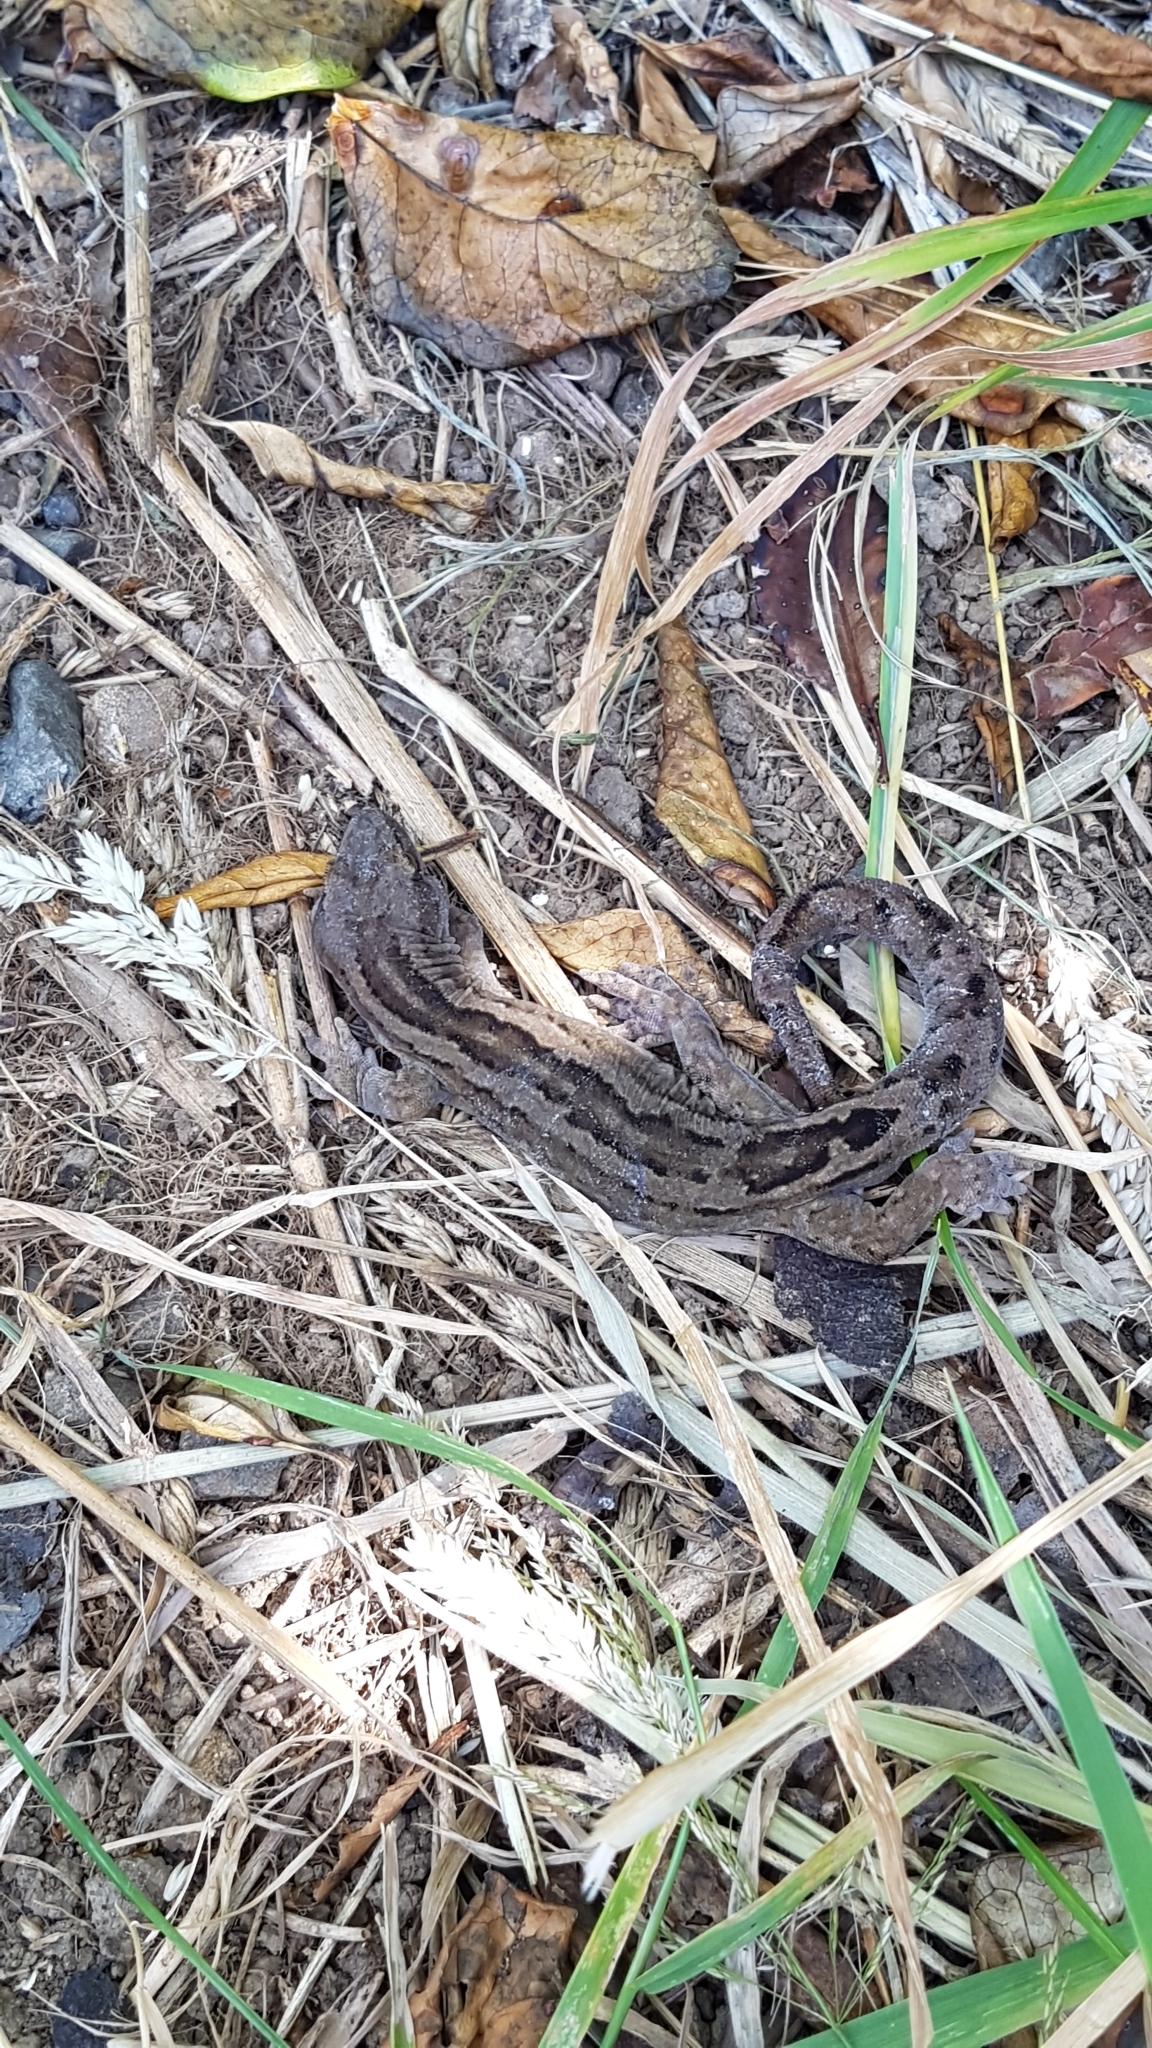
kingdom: Animalia
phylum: Chordata
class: Squamata
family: Diplodactylidae
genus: Woodworthia
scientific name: Woodworthia maculata
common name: Raukawa gecko
